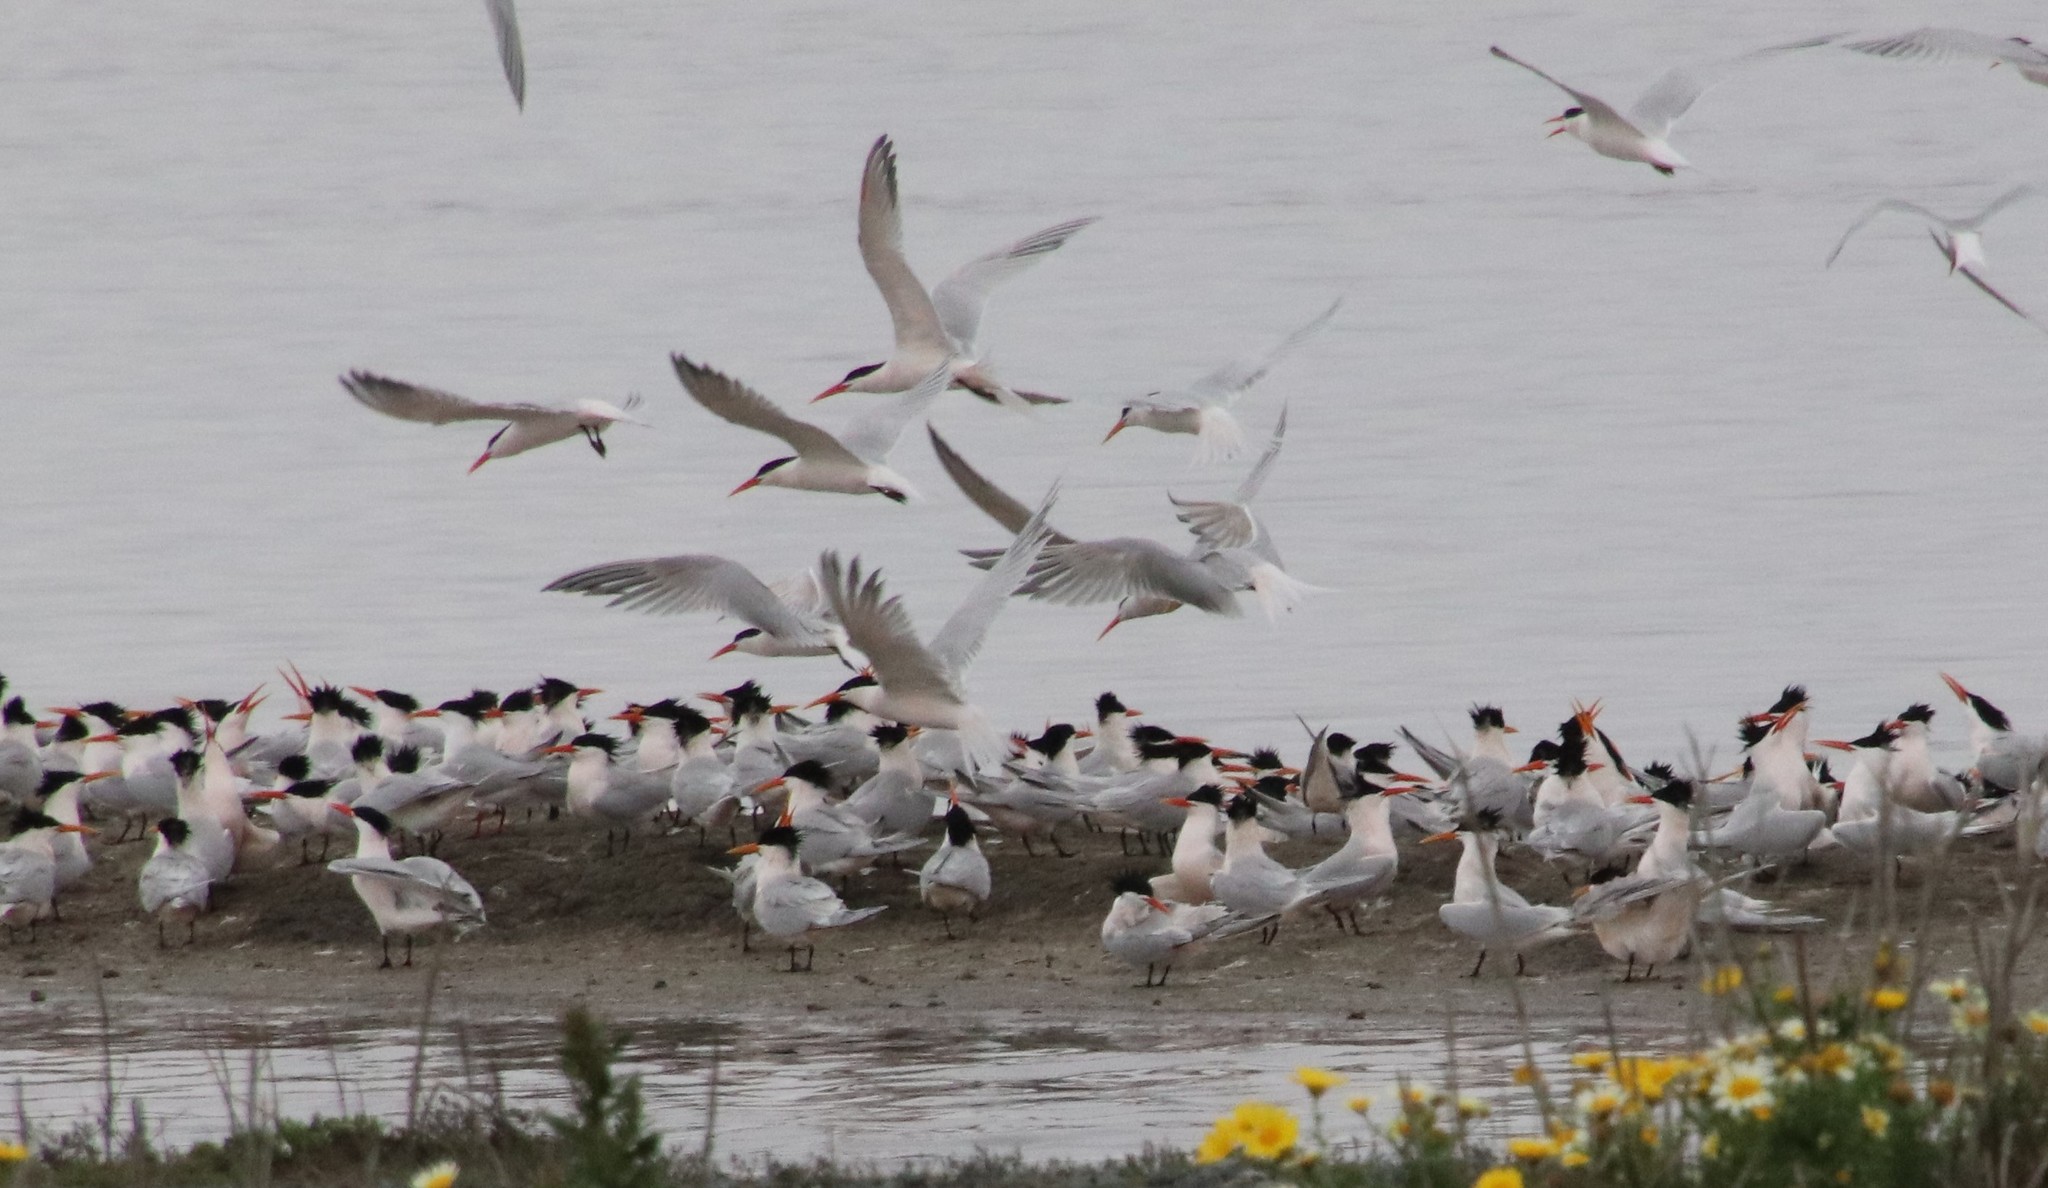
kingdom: Animalia
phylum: Chordata
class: Aves
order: Charadriiformes
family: Laridae
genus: Thalasseus
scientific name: Thalasseus elegans
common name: Elegant tern
